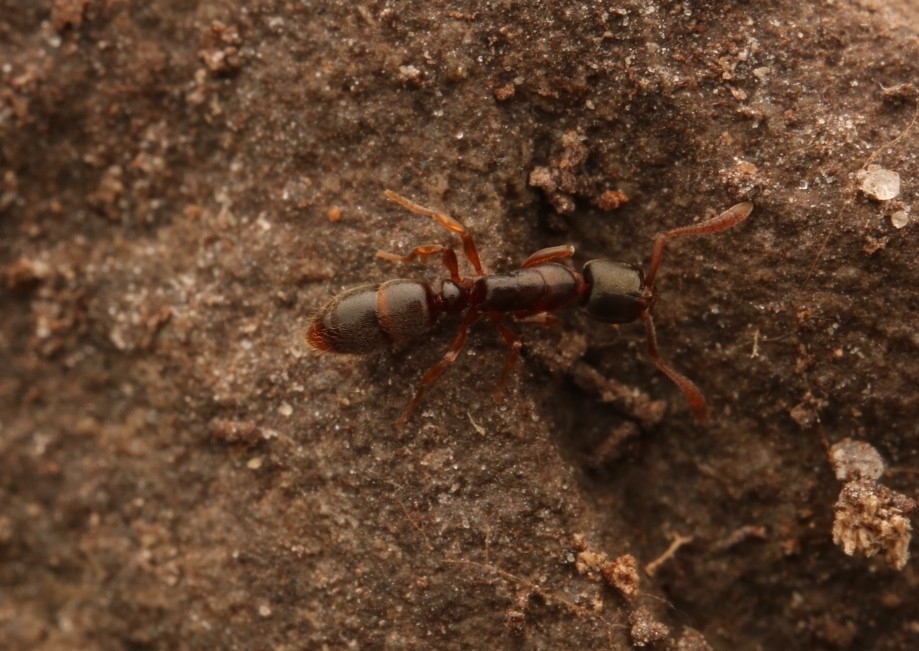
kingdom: Animalia
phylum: Arthropoda
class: Insecta
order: Hymenoptera
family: Formicidae
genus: Ponera
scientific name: Ponera pennsylvanica
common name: Pennsylvania ponera
